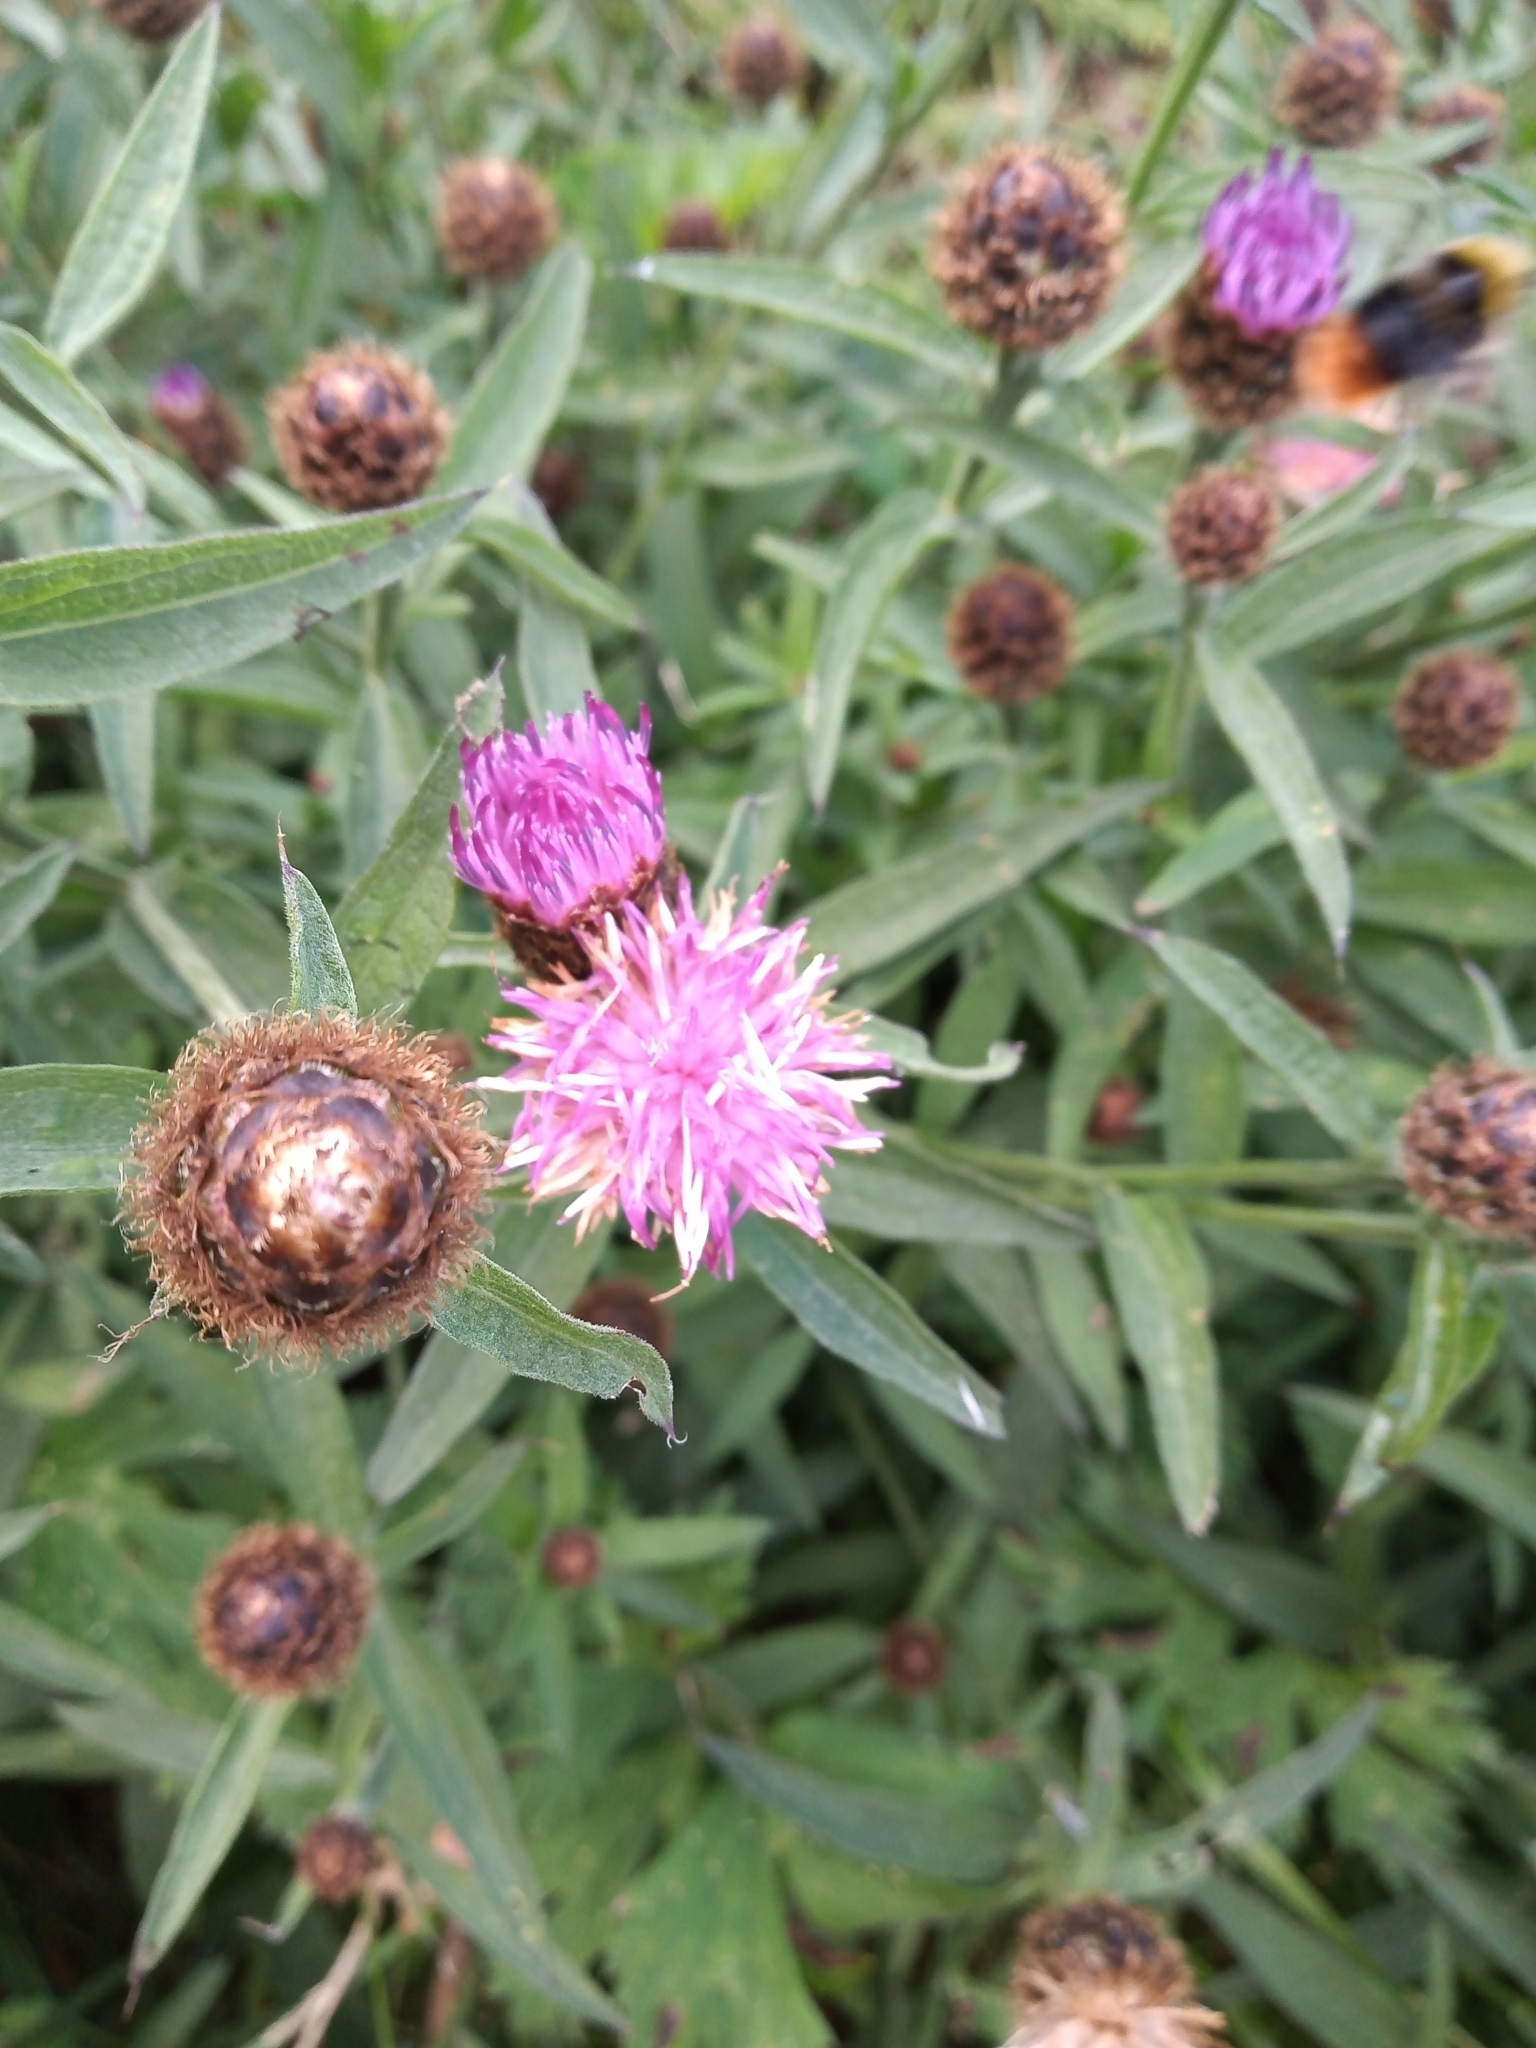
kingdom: Plantae
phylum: Tracheophyta
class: Magnoliopsida
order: Asterales
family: Asteraceae
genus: Centaurea
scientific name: Centaurea nigra
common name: Lesser knapweed
